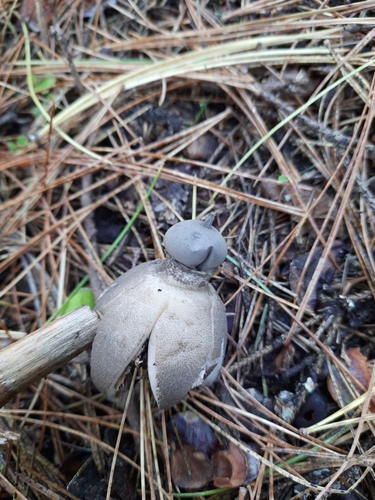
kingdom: Fungi
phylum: Basidiomycota
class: Agaricomycetes
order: Geastrales
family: Geastraceae
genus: Geastrum
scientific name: Geastrum pectinatum
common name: Beaked earthstar
